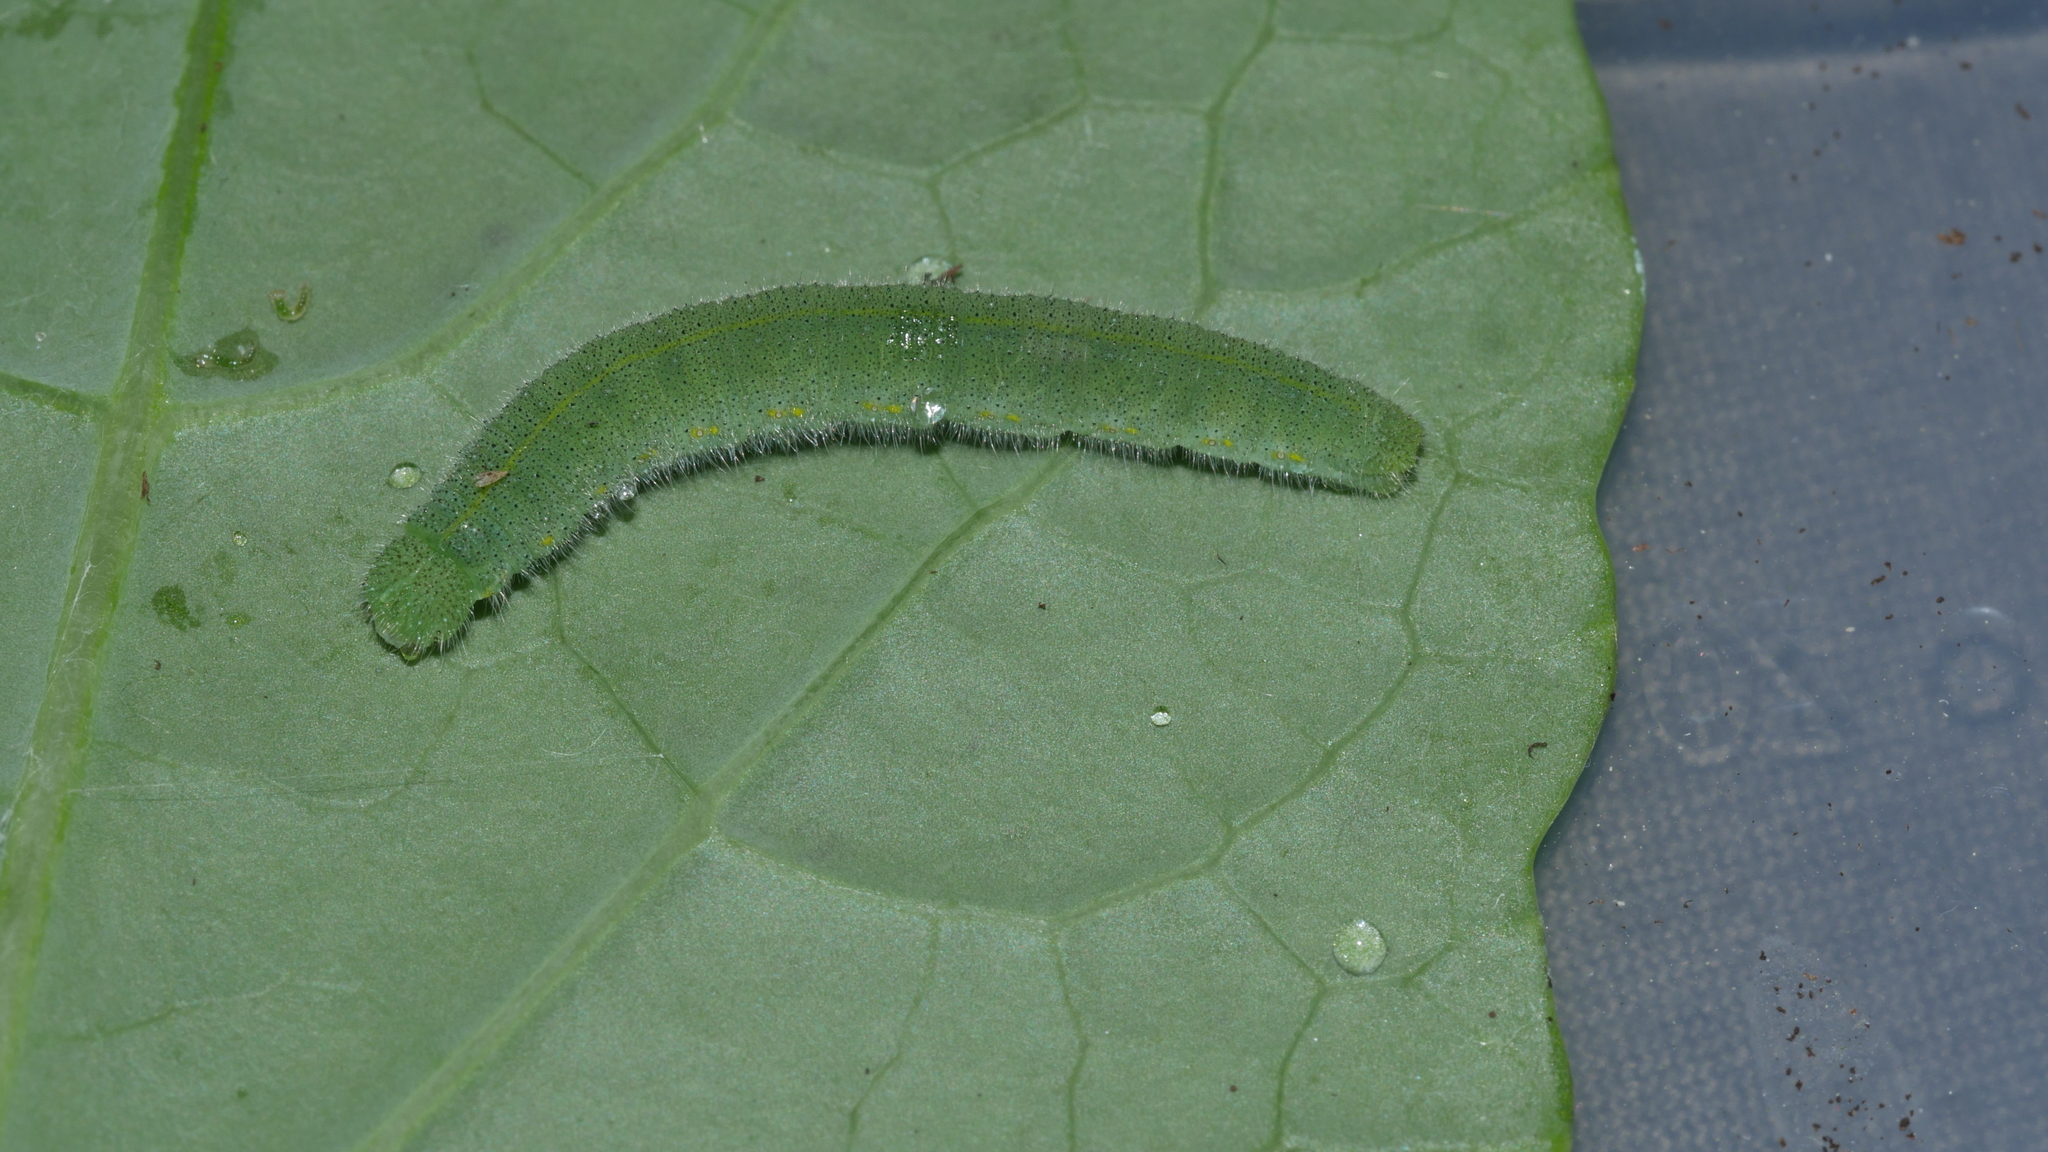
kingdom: Animalia
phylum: Arthropoda
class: Insecta
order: Lepidoptera
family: Pieridae
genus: Pieris
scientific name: Pieris rapae
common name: Small white
